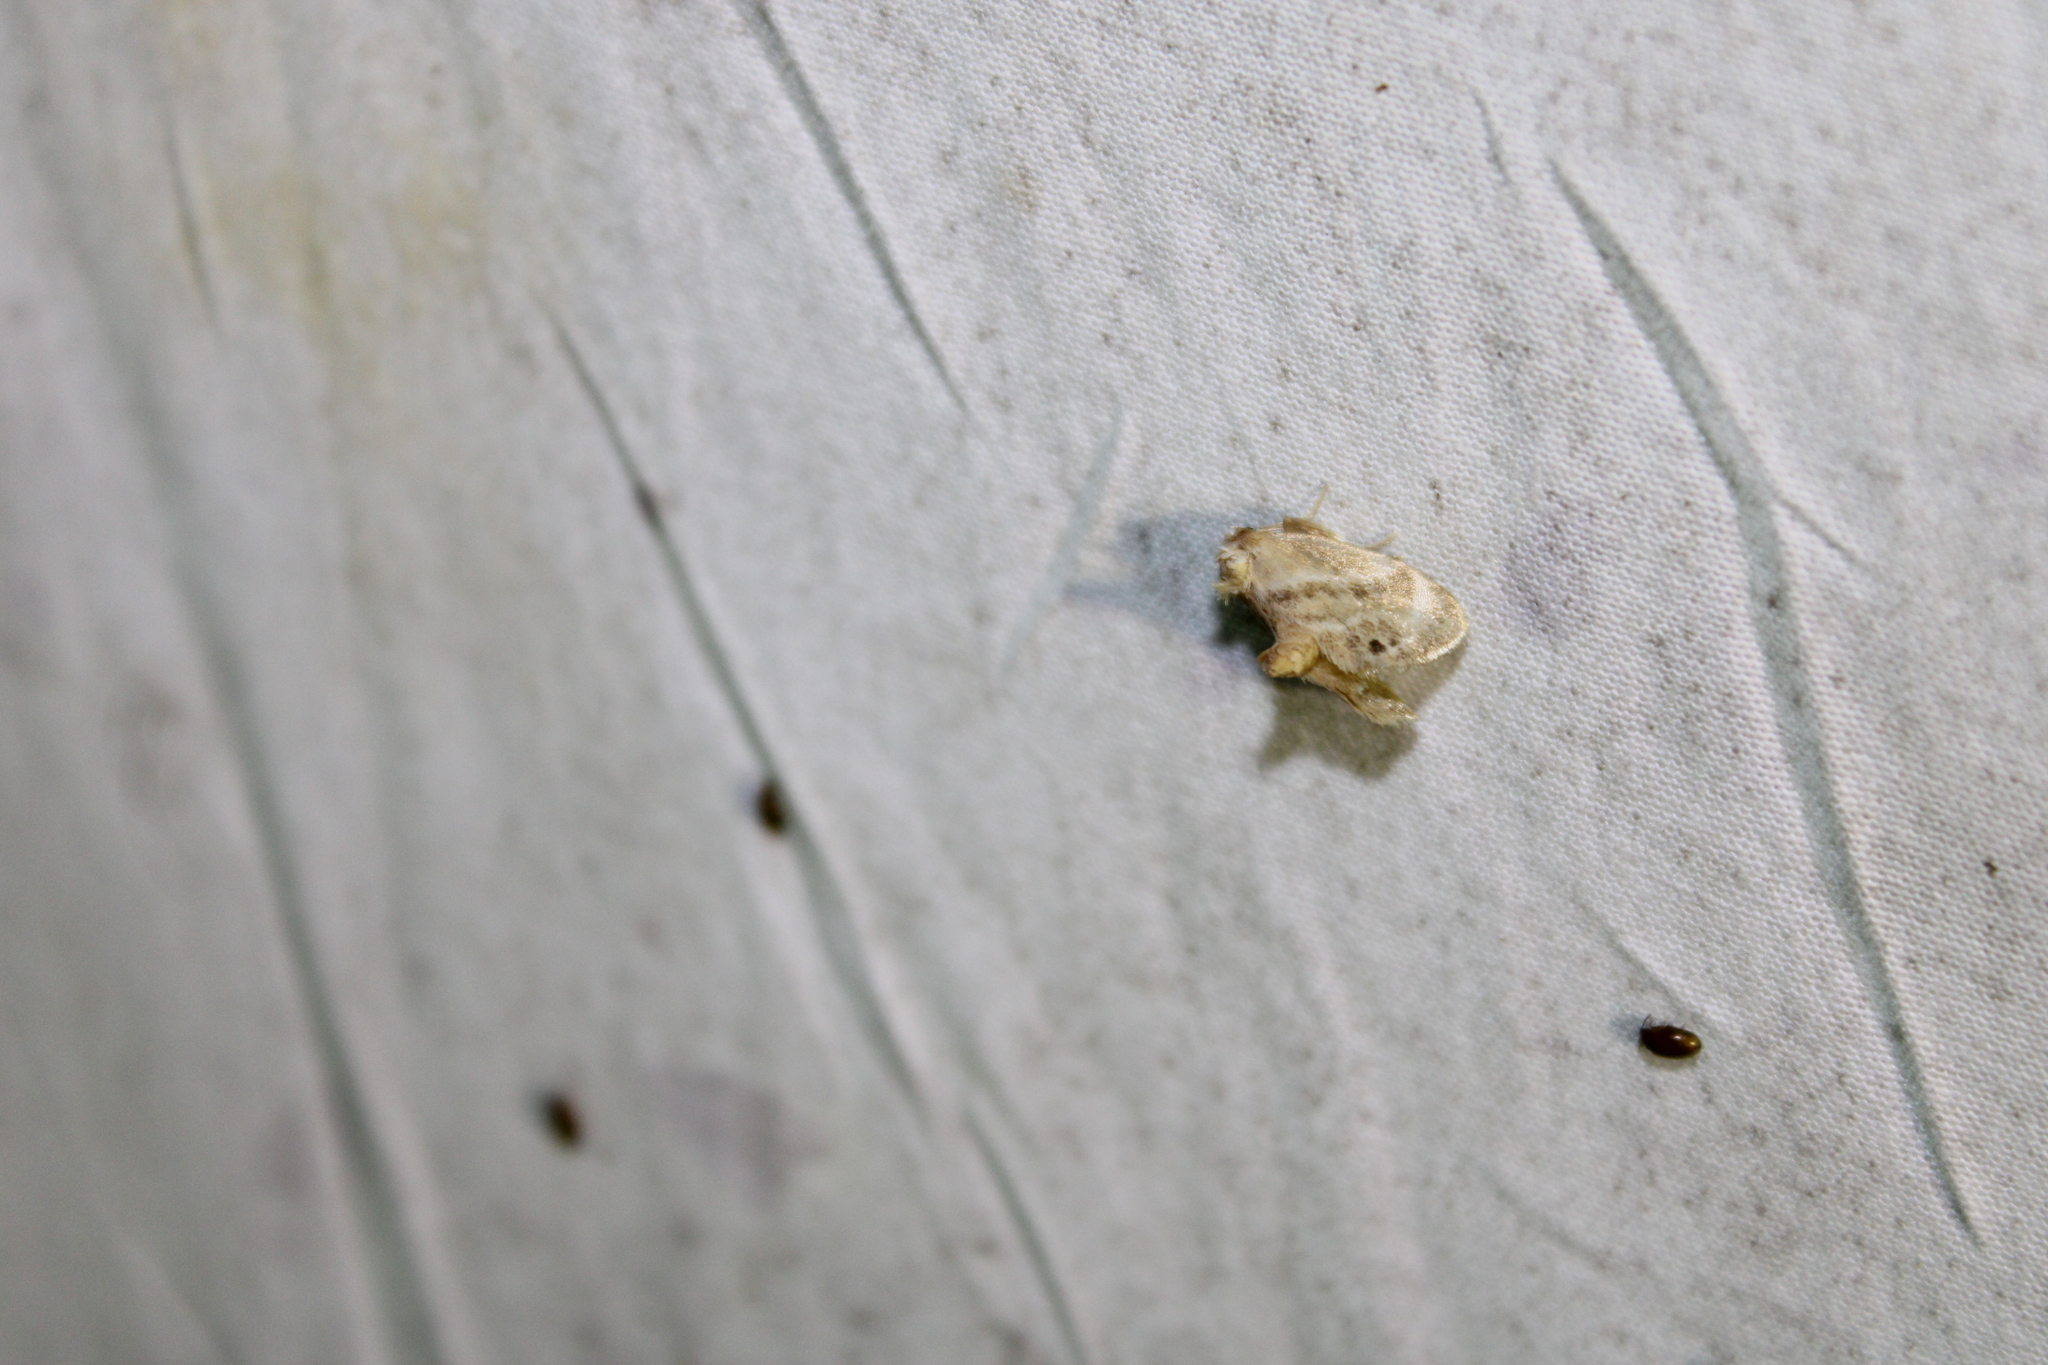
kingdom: Animalia
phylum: Arthropoda
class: Insecta
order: Lepidoptera
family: Limacodidae
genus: Packardia
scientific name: Packardia elegans
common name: Elegant tailed slug moth
